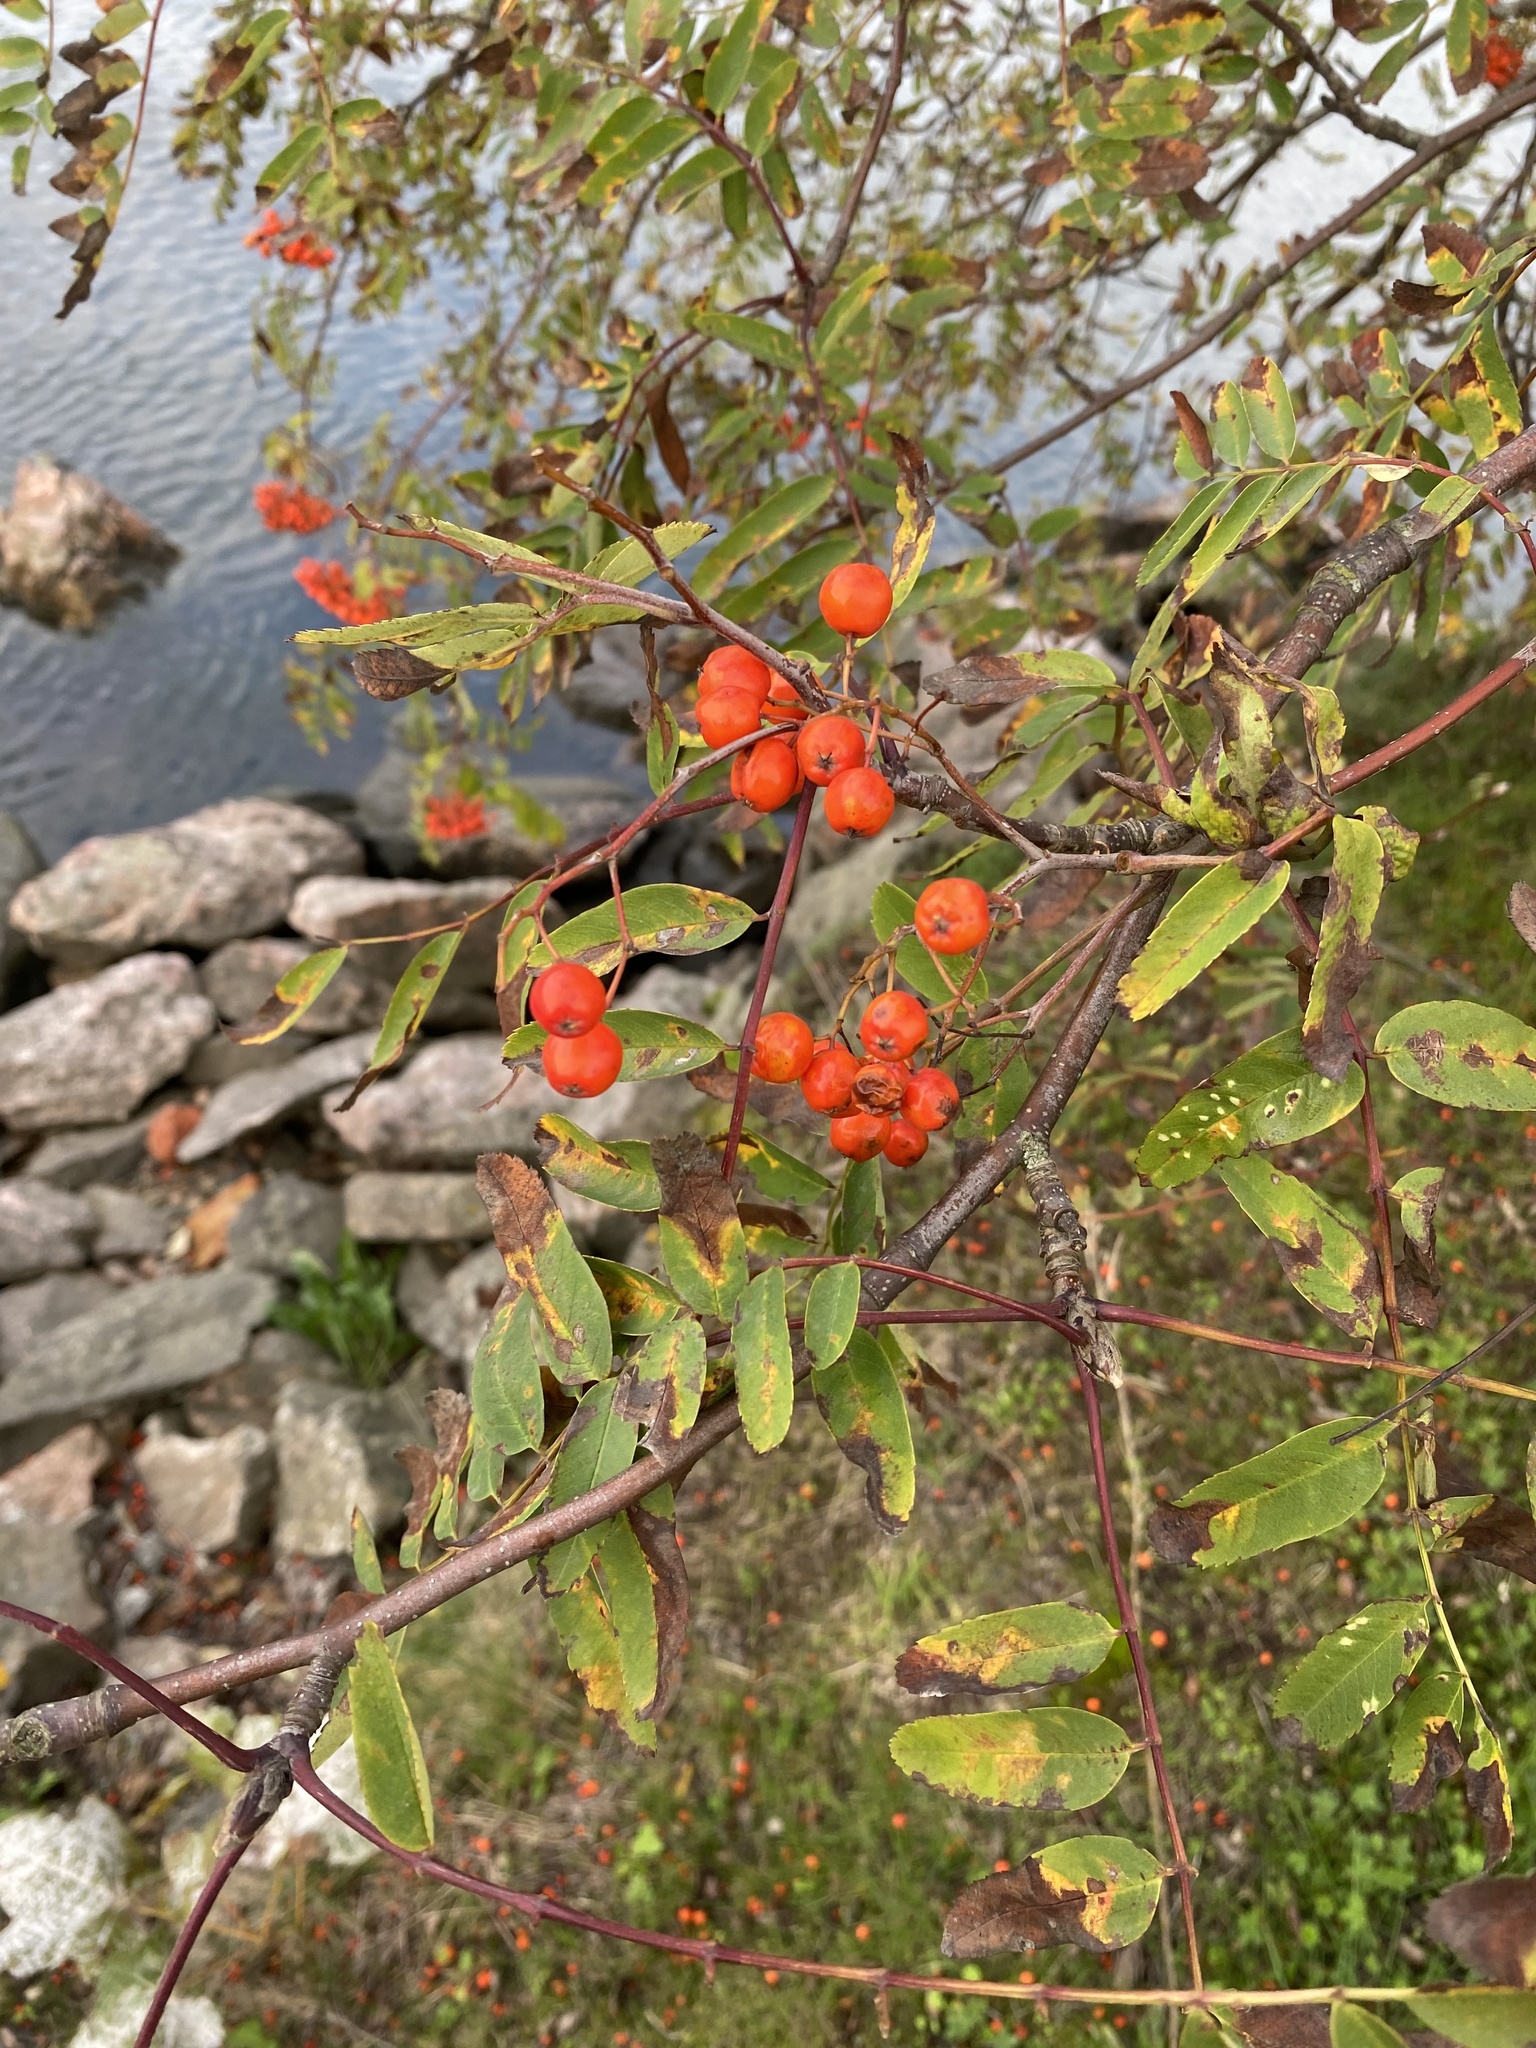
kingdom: Plantae
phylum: Tracheophyta
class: Magnoliopsida
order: Rosales
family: Rosaceae
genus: Sorbus
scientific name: Sorbus aucuparia
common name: Rowan
